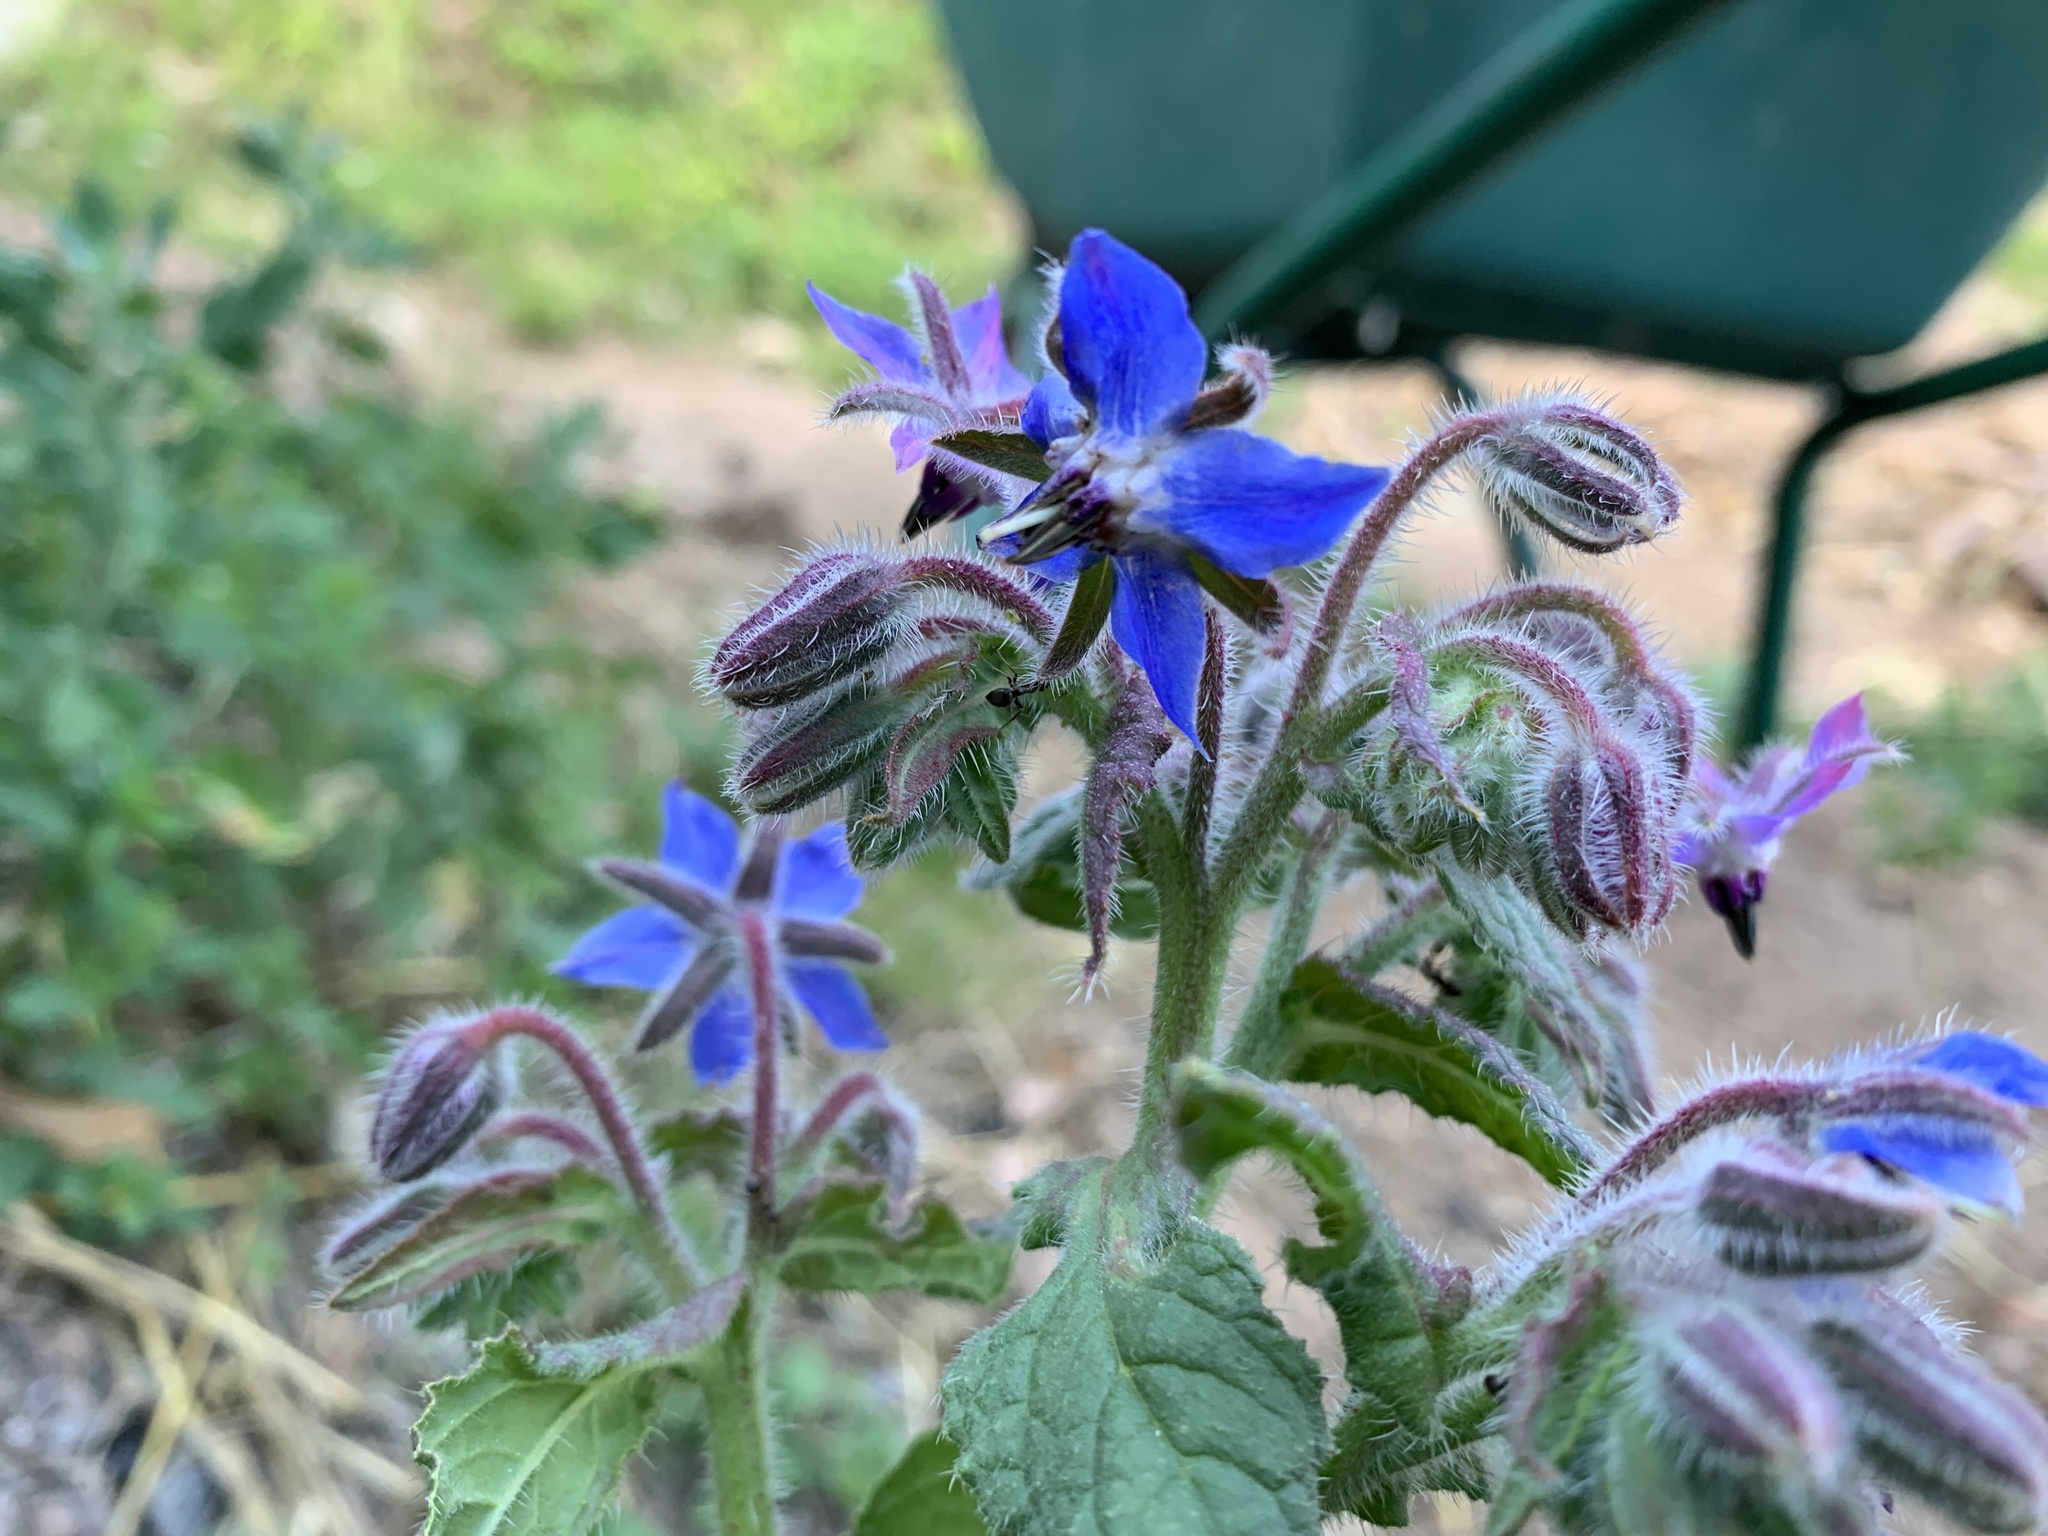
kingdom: Plantae
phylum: Tracheophyta
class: Magnoliopsida
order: Boraginales
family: Boraginaceae
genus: Borago
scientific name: Borago officinalis
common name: Borage
